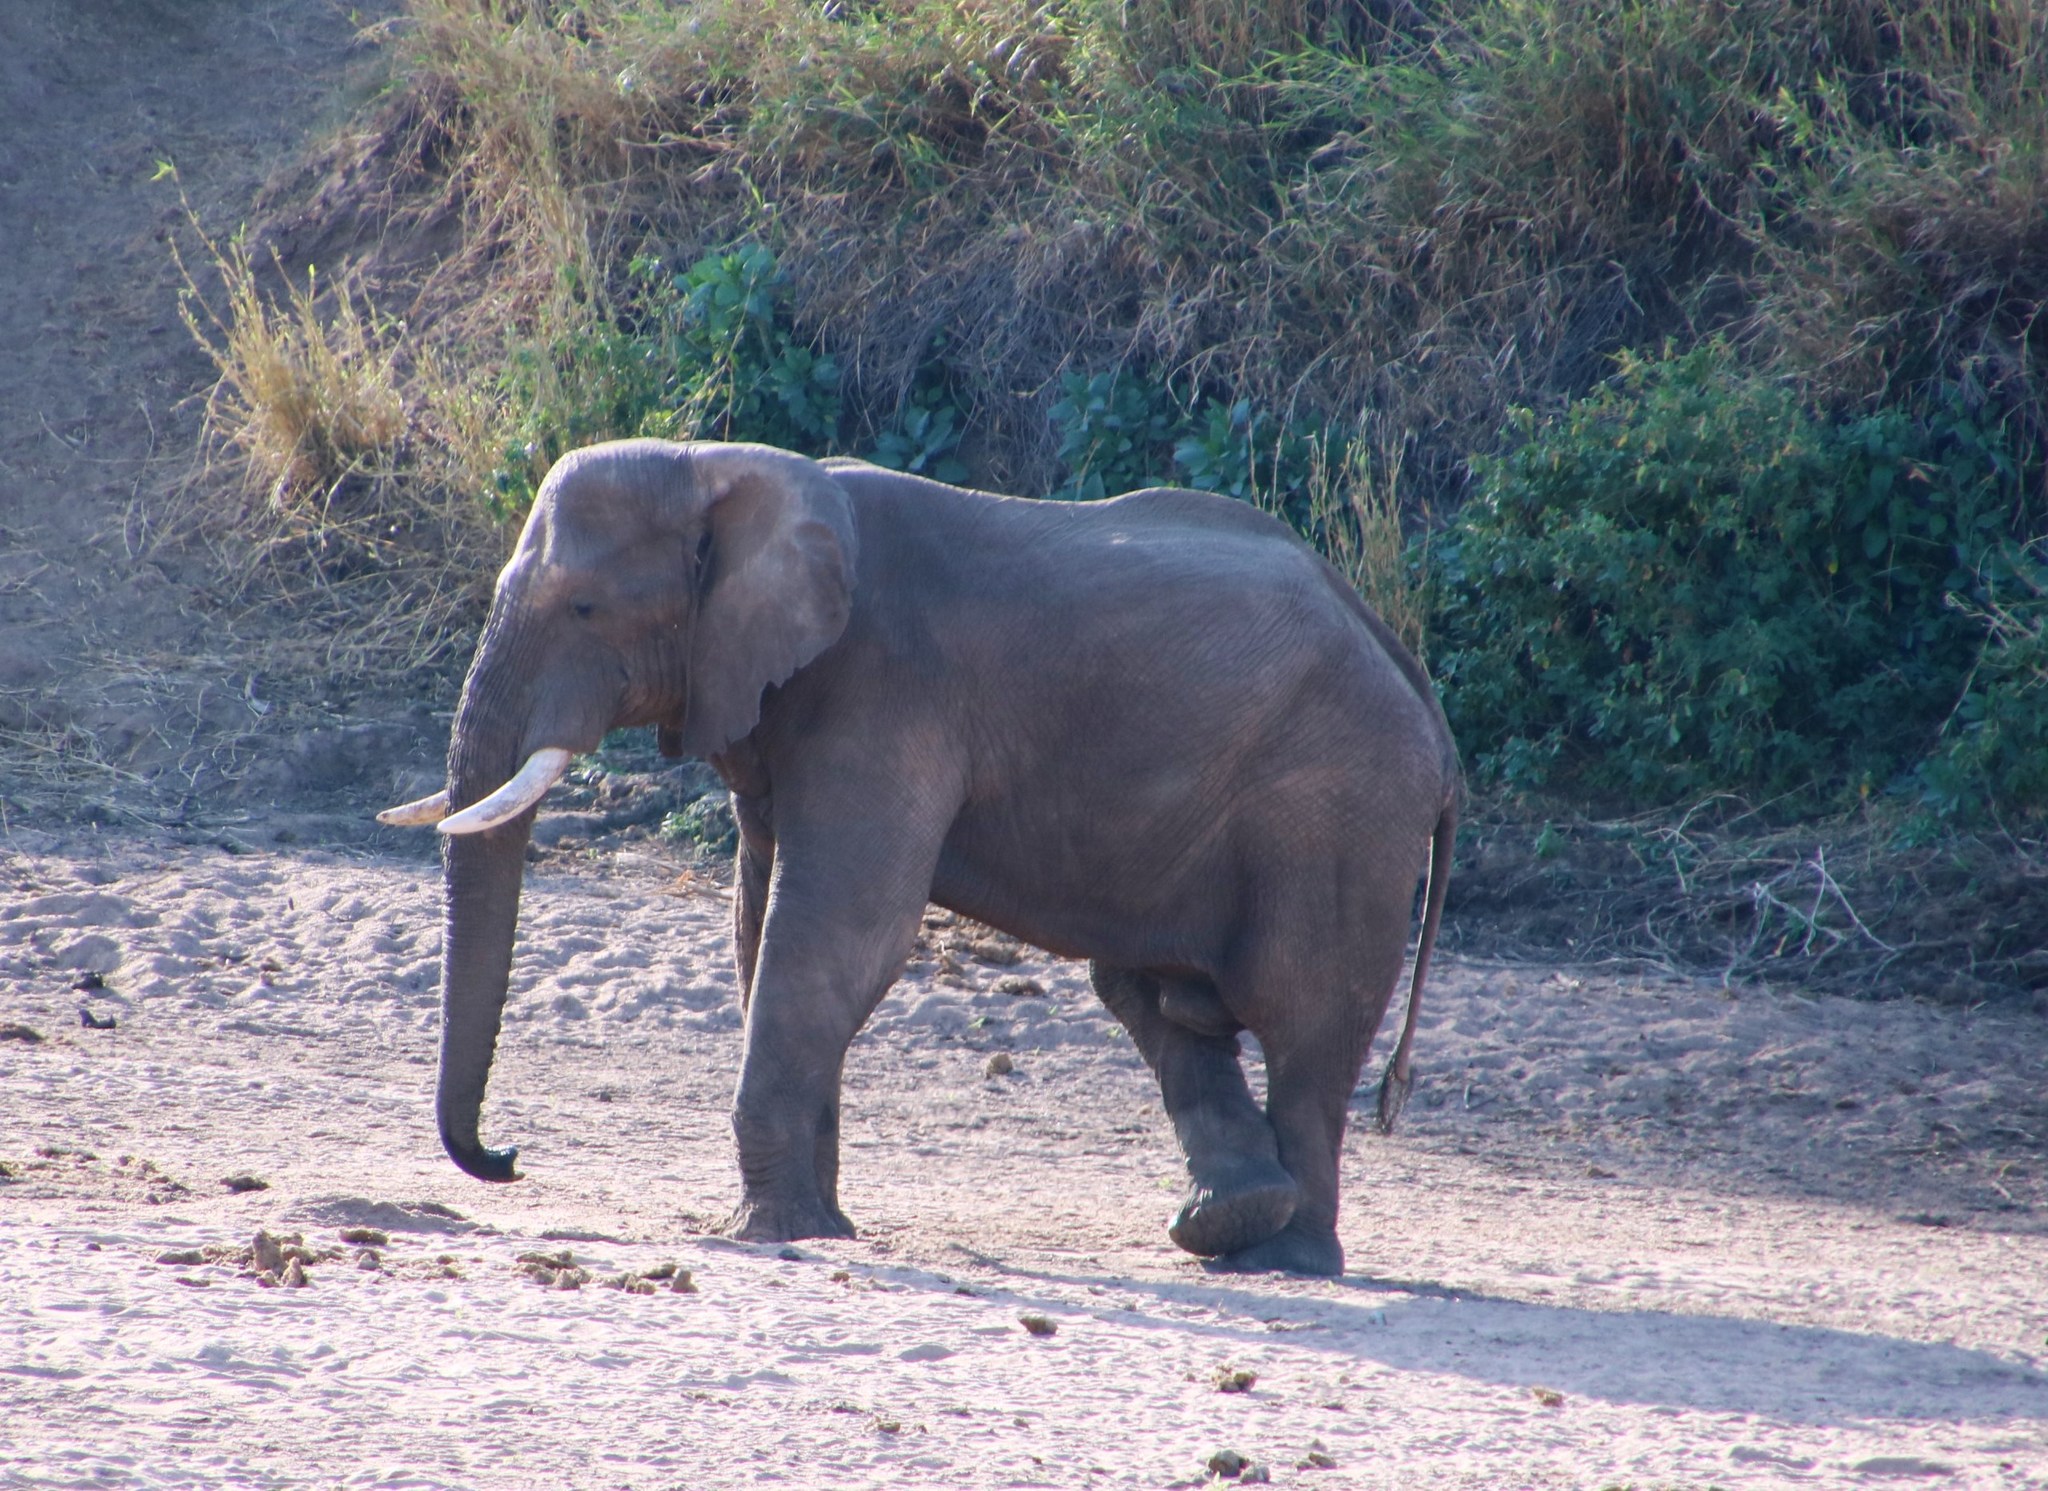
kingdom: Animalia
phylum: Chordata
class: Mammalia
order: Proboscidea
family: Elephantidae
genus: Loxodonta
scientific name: Loxodonta africana
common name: African elephant
